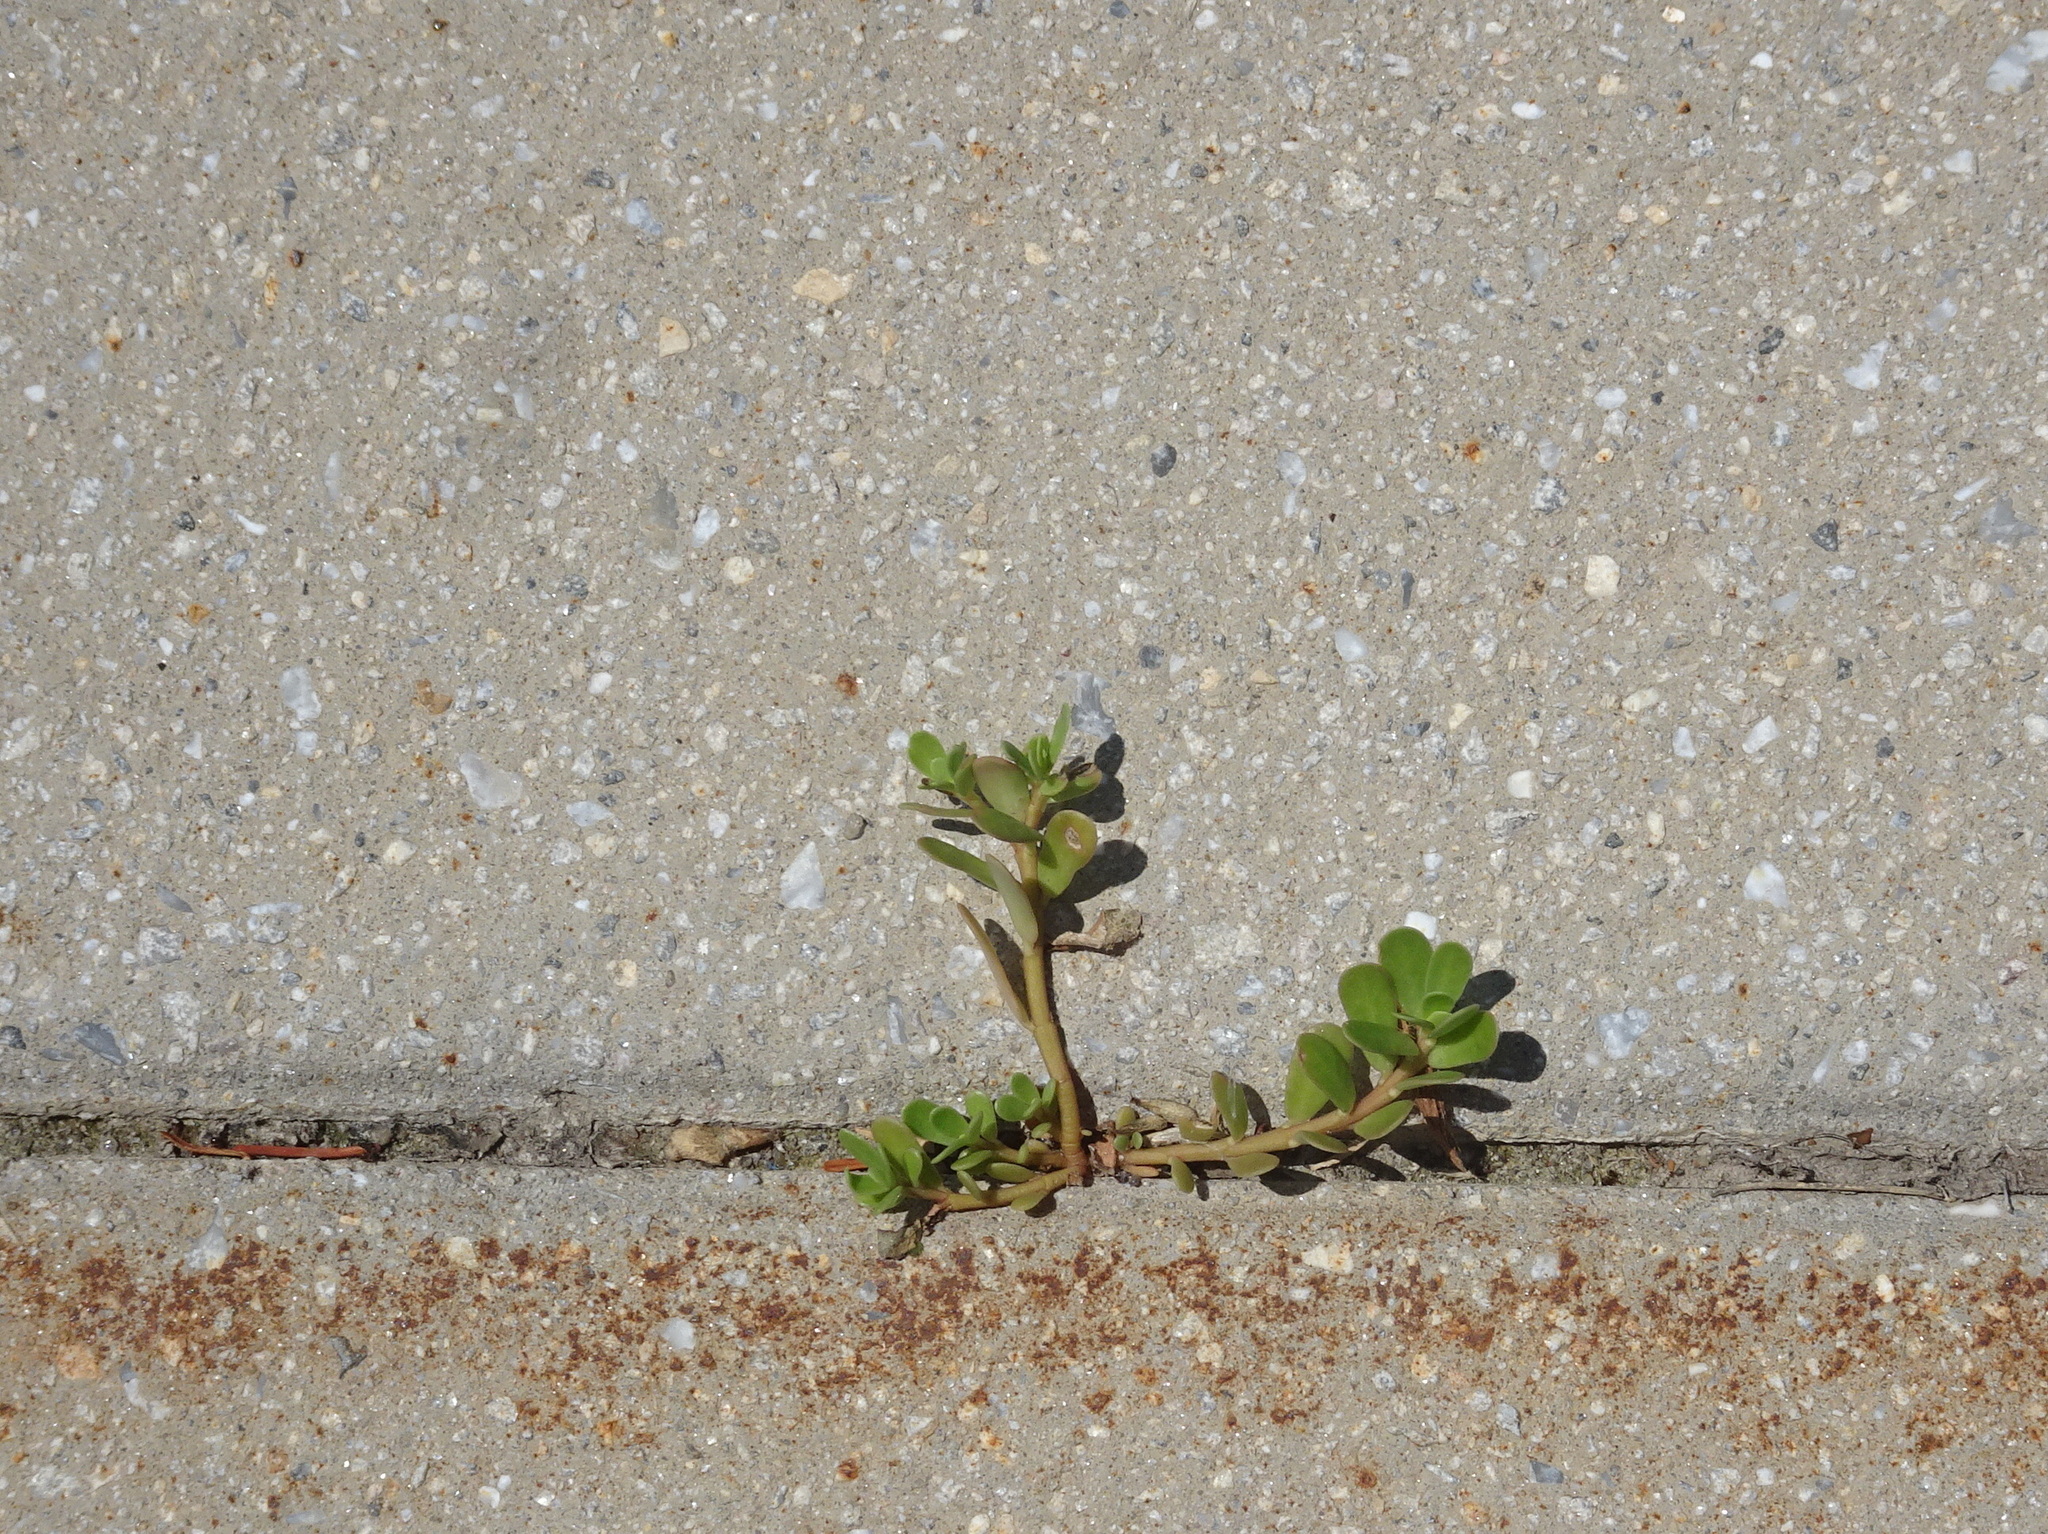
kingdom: Plantae
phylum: Tracheophyta
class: Magnoliopsida
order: Caryophyllales
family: Portulacaceae
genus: Portulaca
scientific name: Portulaca oleracea
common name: Common purslane
